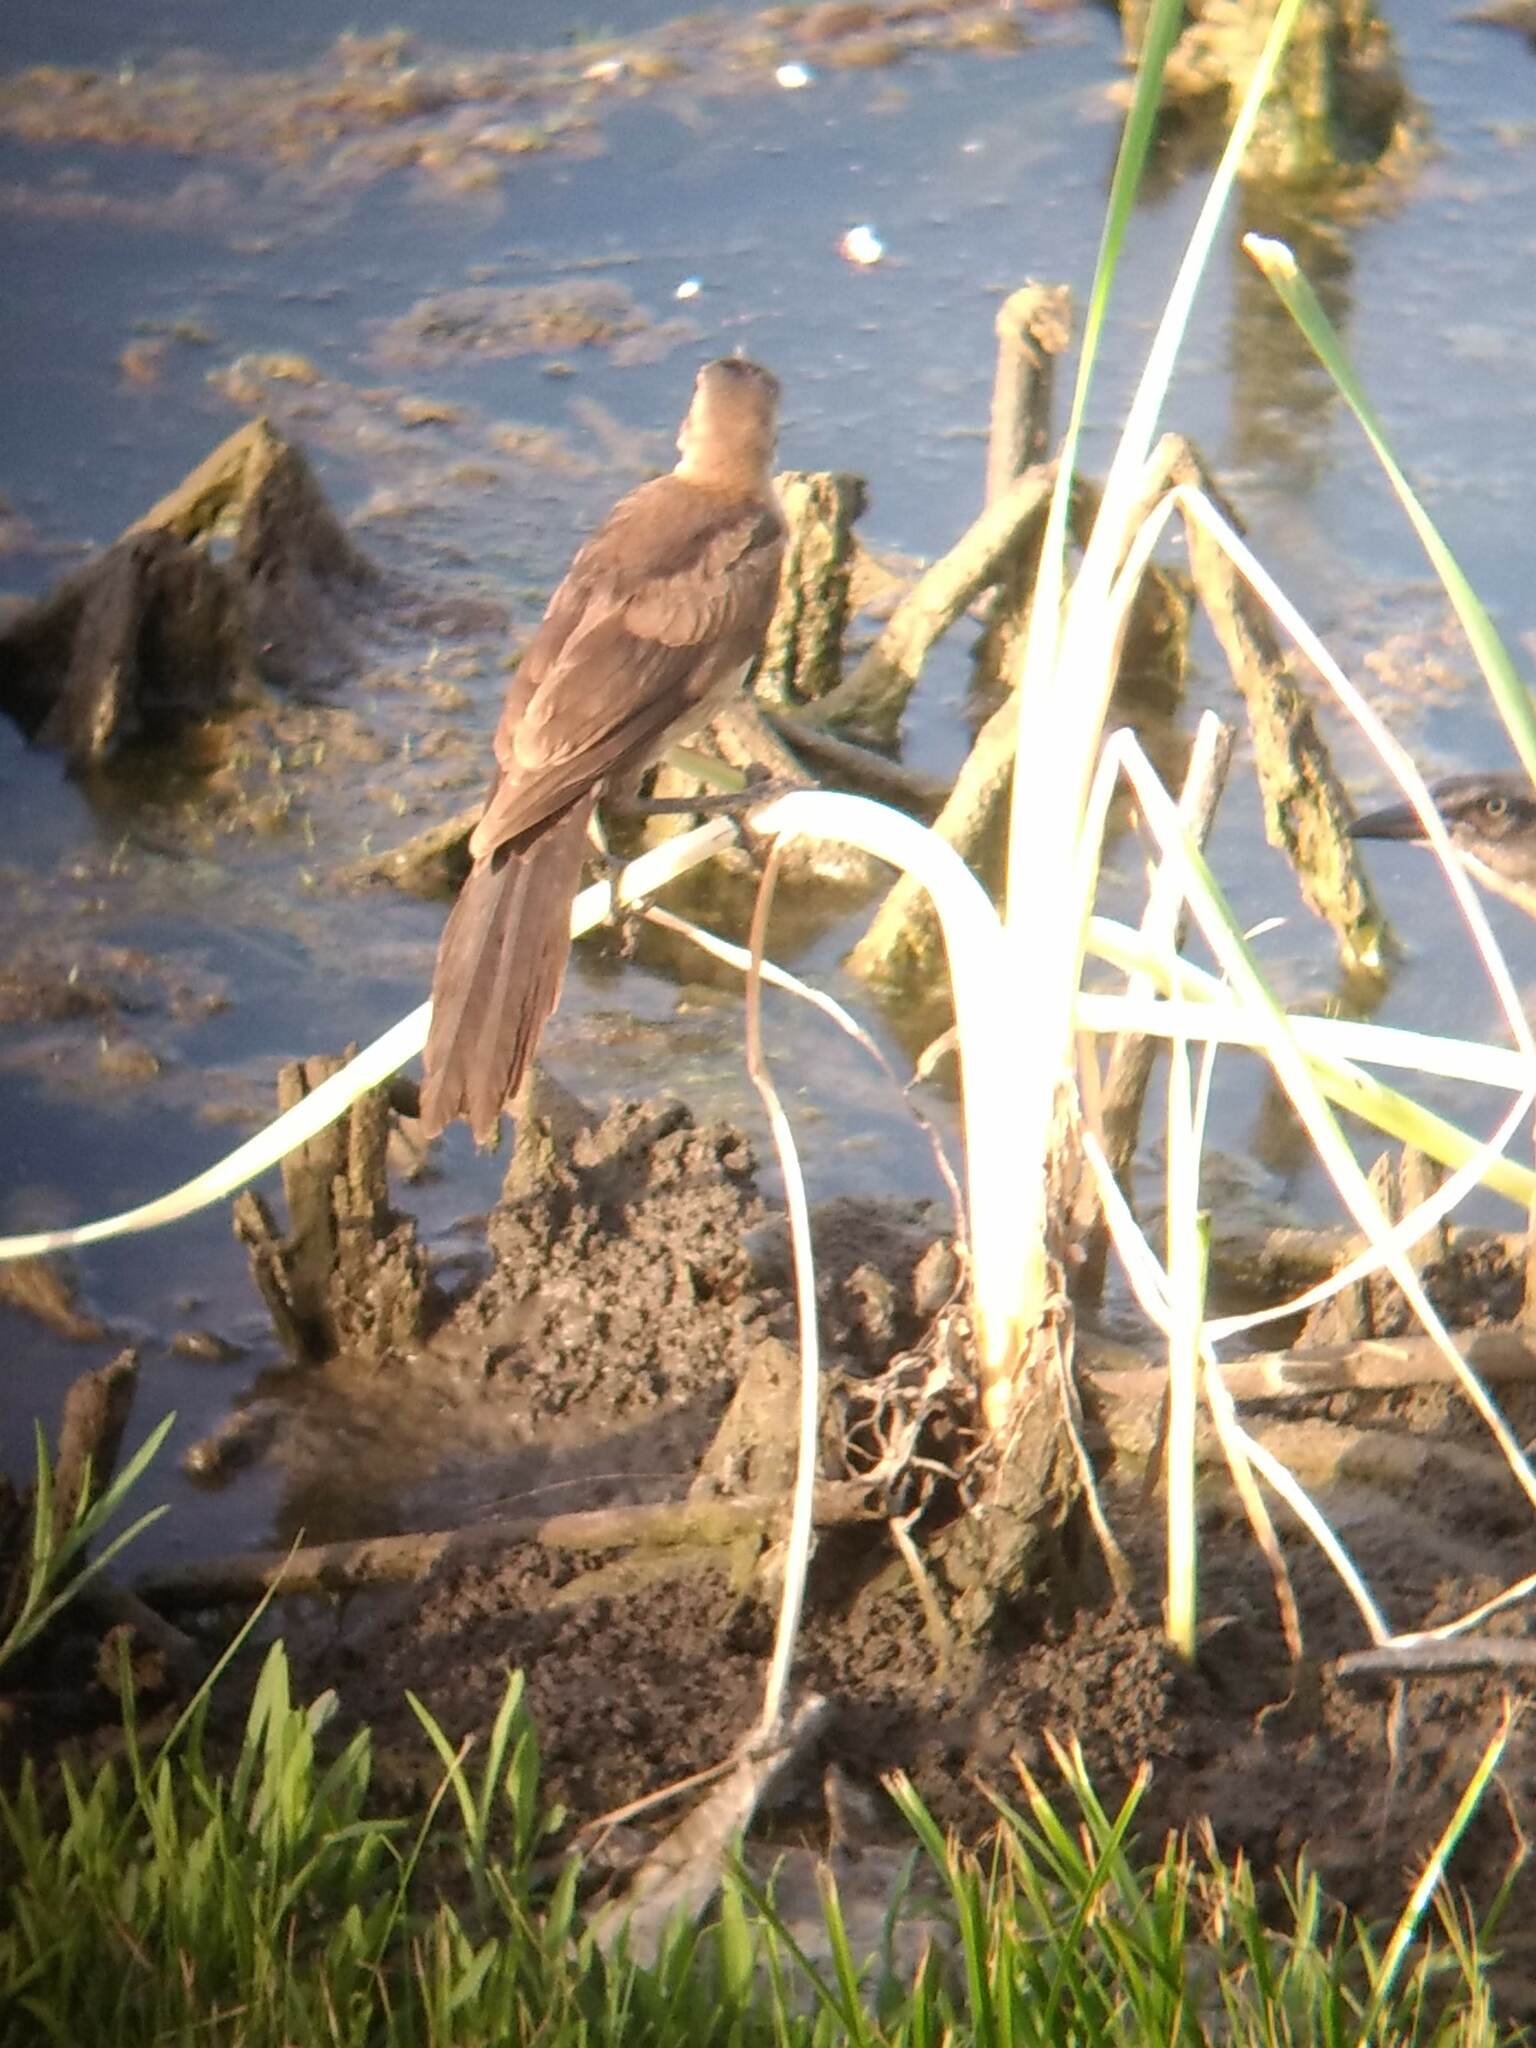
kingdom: Animalia
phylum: Chordata
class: Aves
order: Passeriformes
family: Icteridae
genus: Quiscalus
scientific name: Quiscalus mexicanus
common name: Great-tailed grackle
